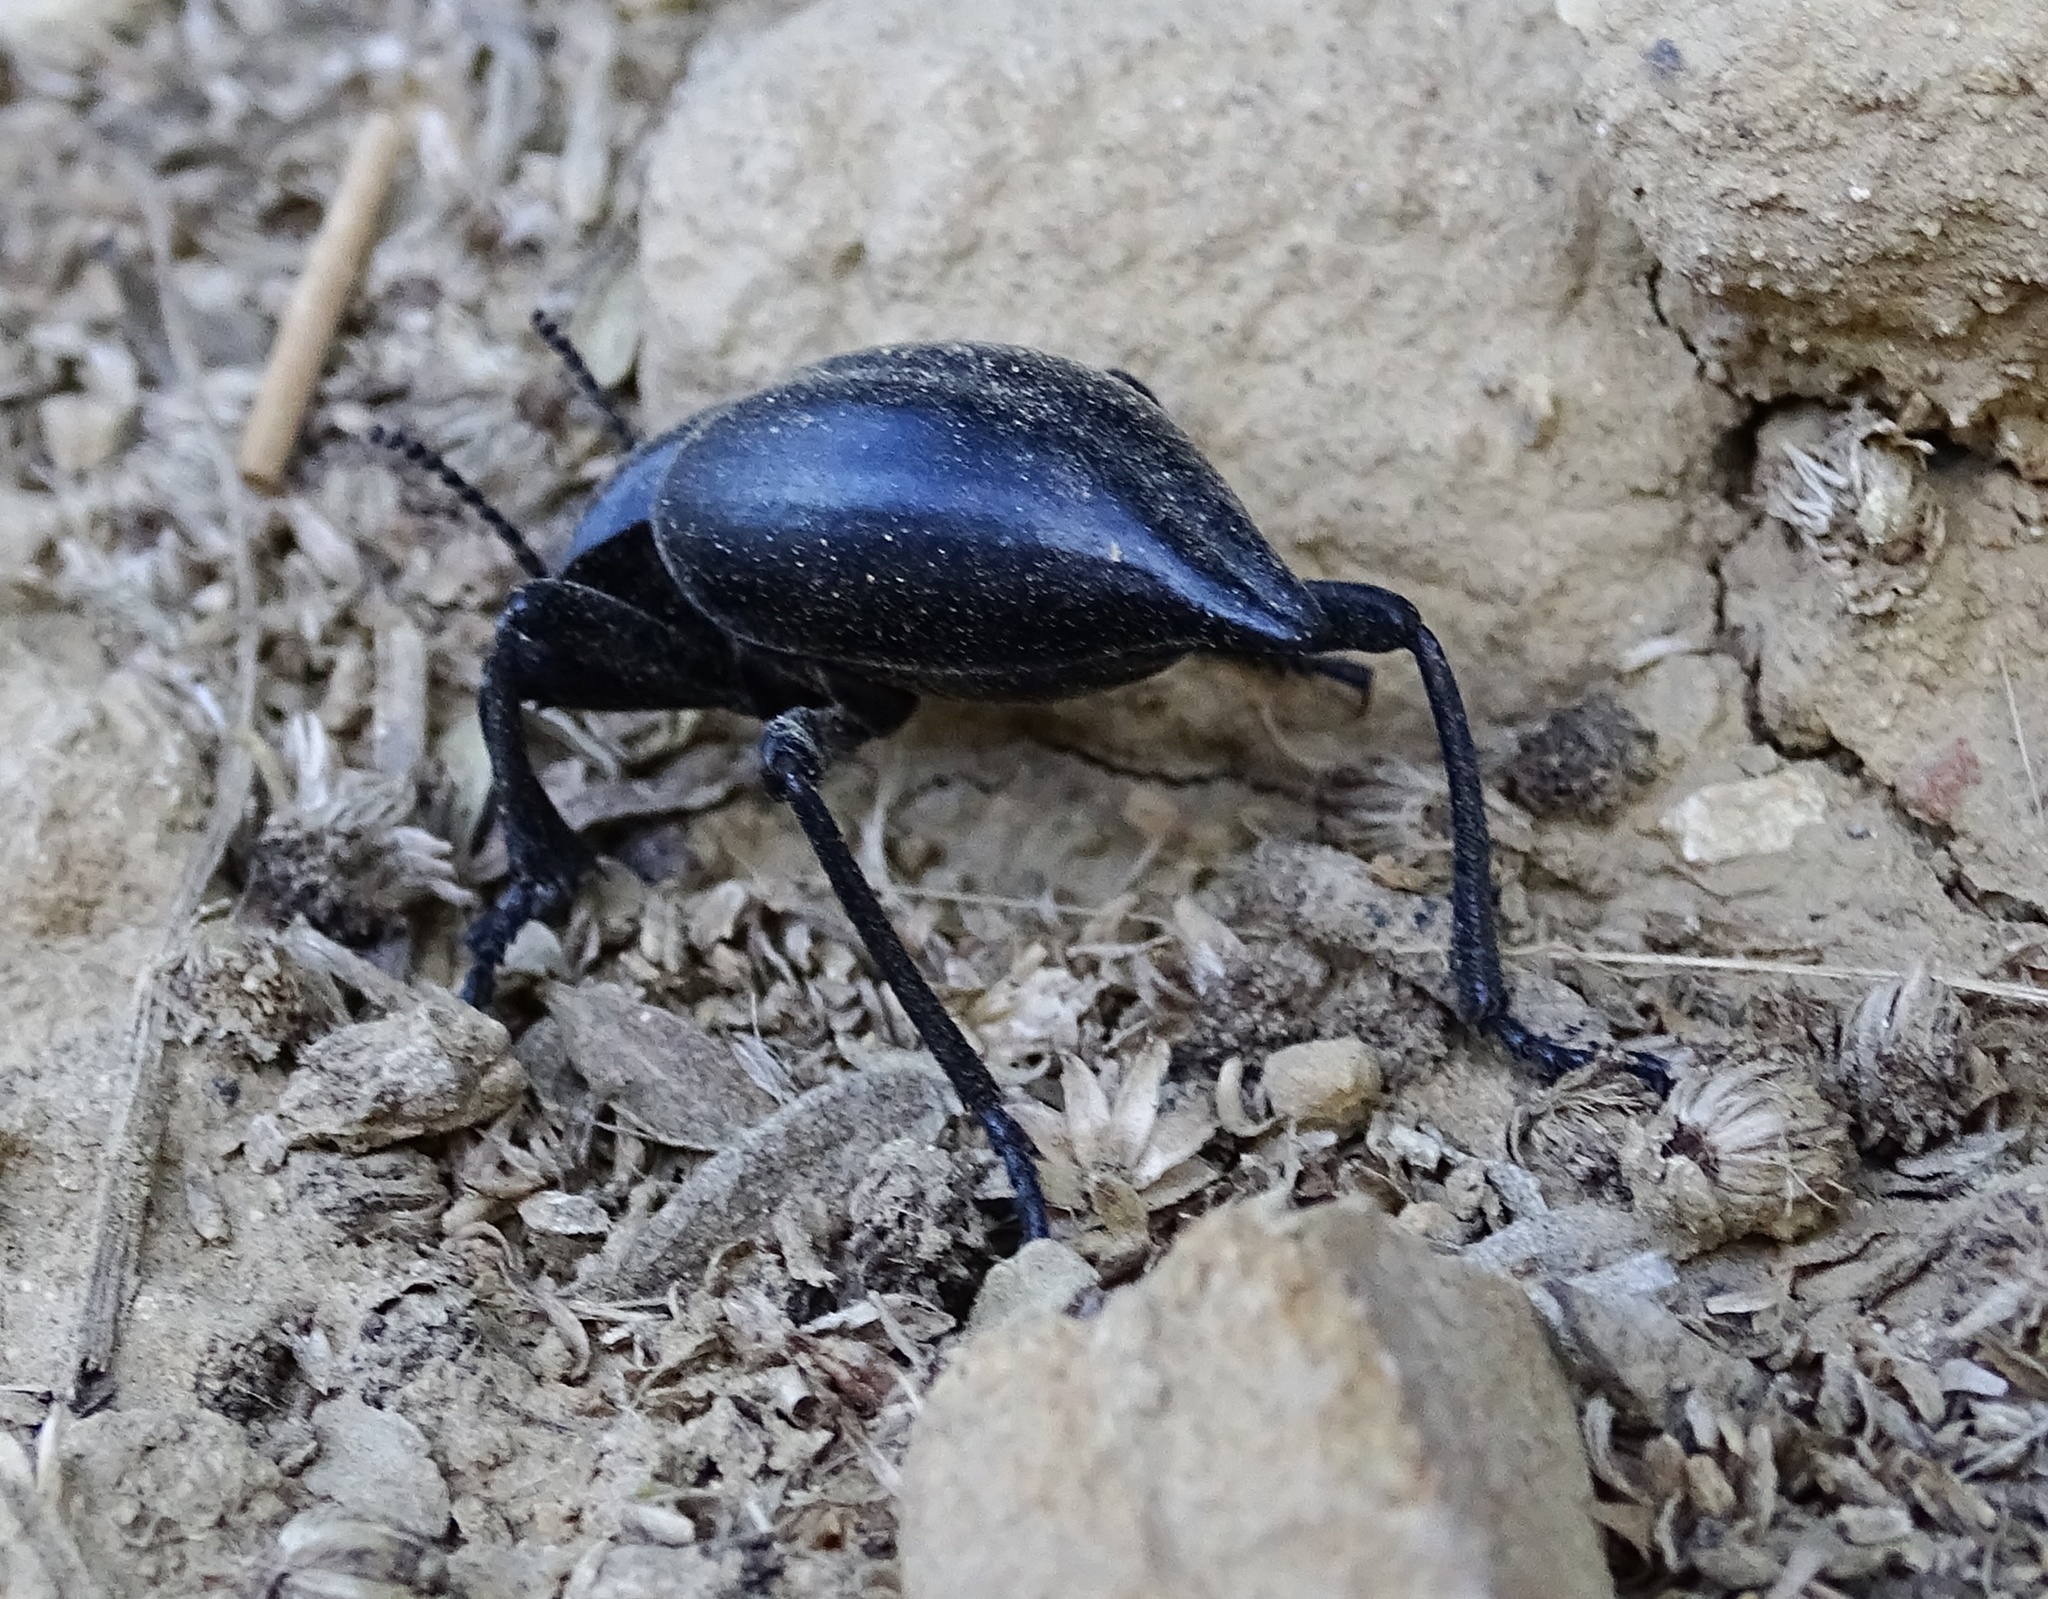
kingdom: Animalia
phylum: Arthropoda
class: Insecta
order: Coleoptera
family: Tenebrionidae
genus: Eleodes
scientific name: Eleodes acuticauda
